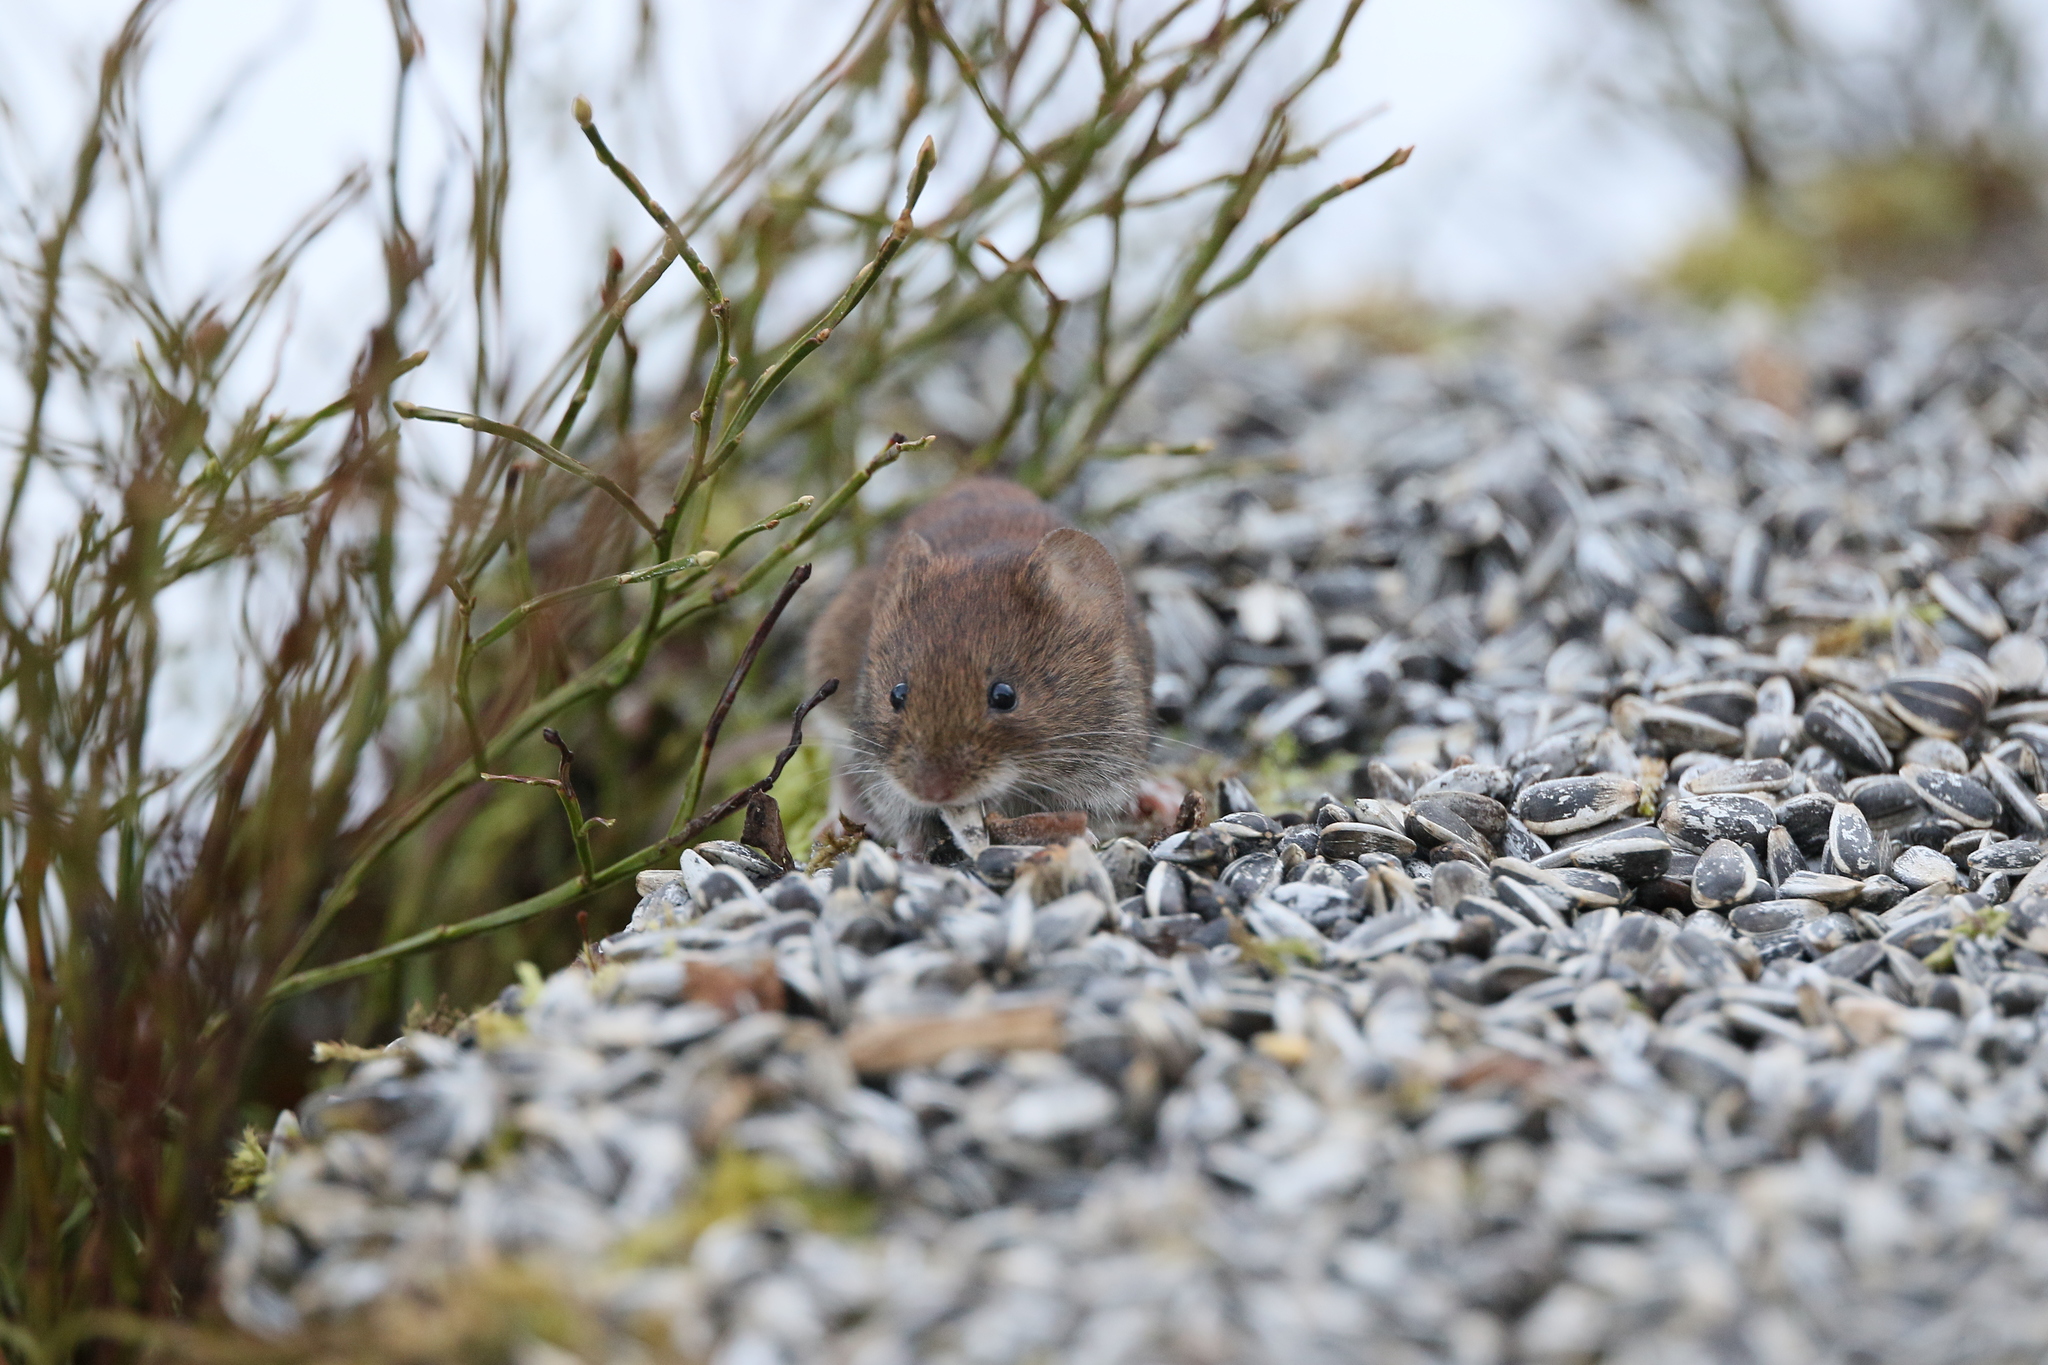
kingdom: Animalia
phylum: Chordata
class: Mammalia
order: Rodentia
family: Cricetidae
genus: Myodes
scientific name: Myodes glareolus
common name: Bank vole
